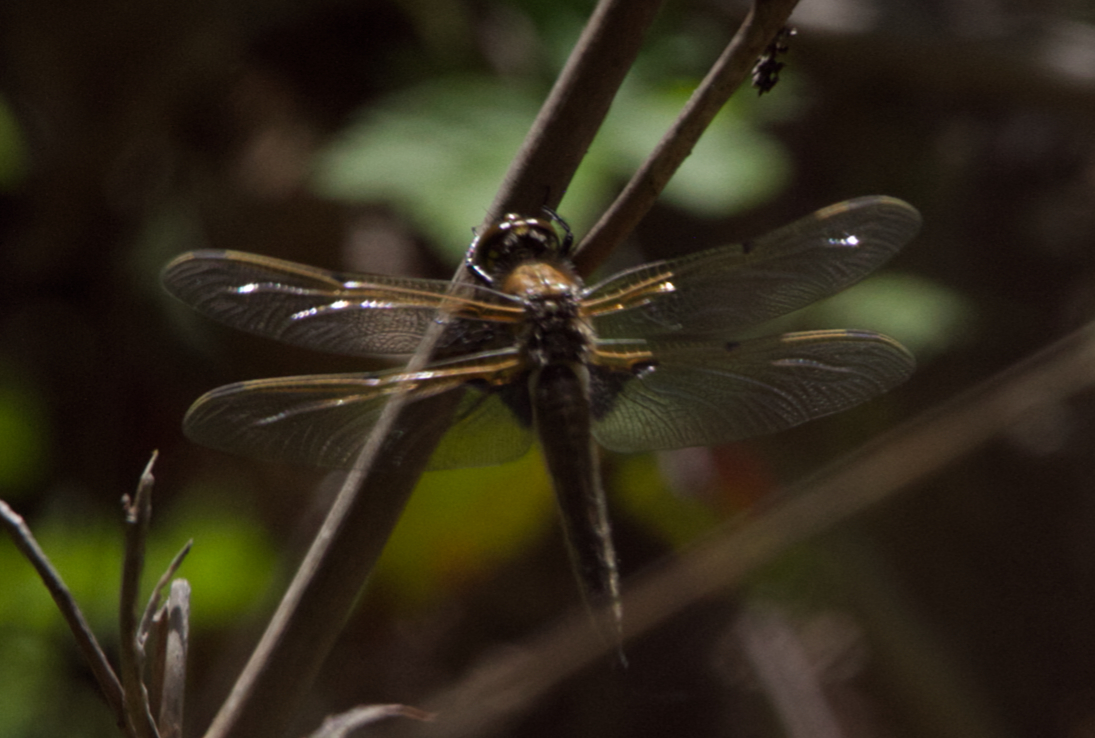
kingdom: Animalia
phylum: Arthropoda
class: Insecta
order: Odonata
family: Libellulidae
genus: Libellula
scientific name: Libellula quadrimaculata
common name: Four-spotted chaser
